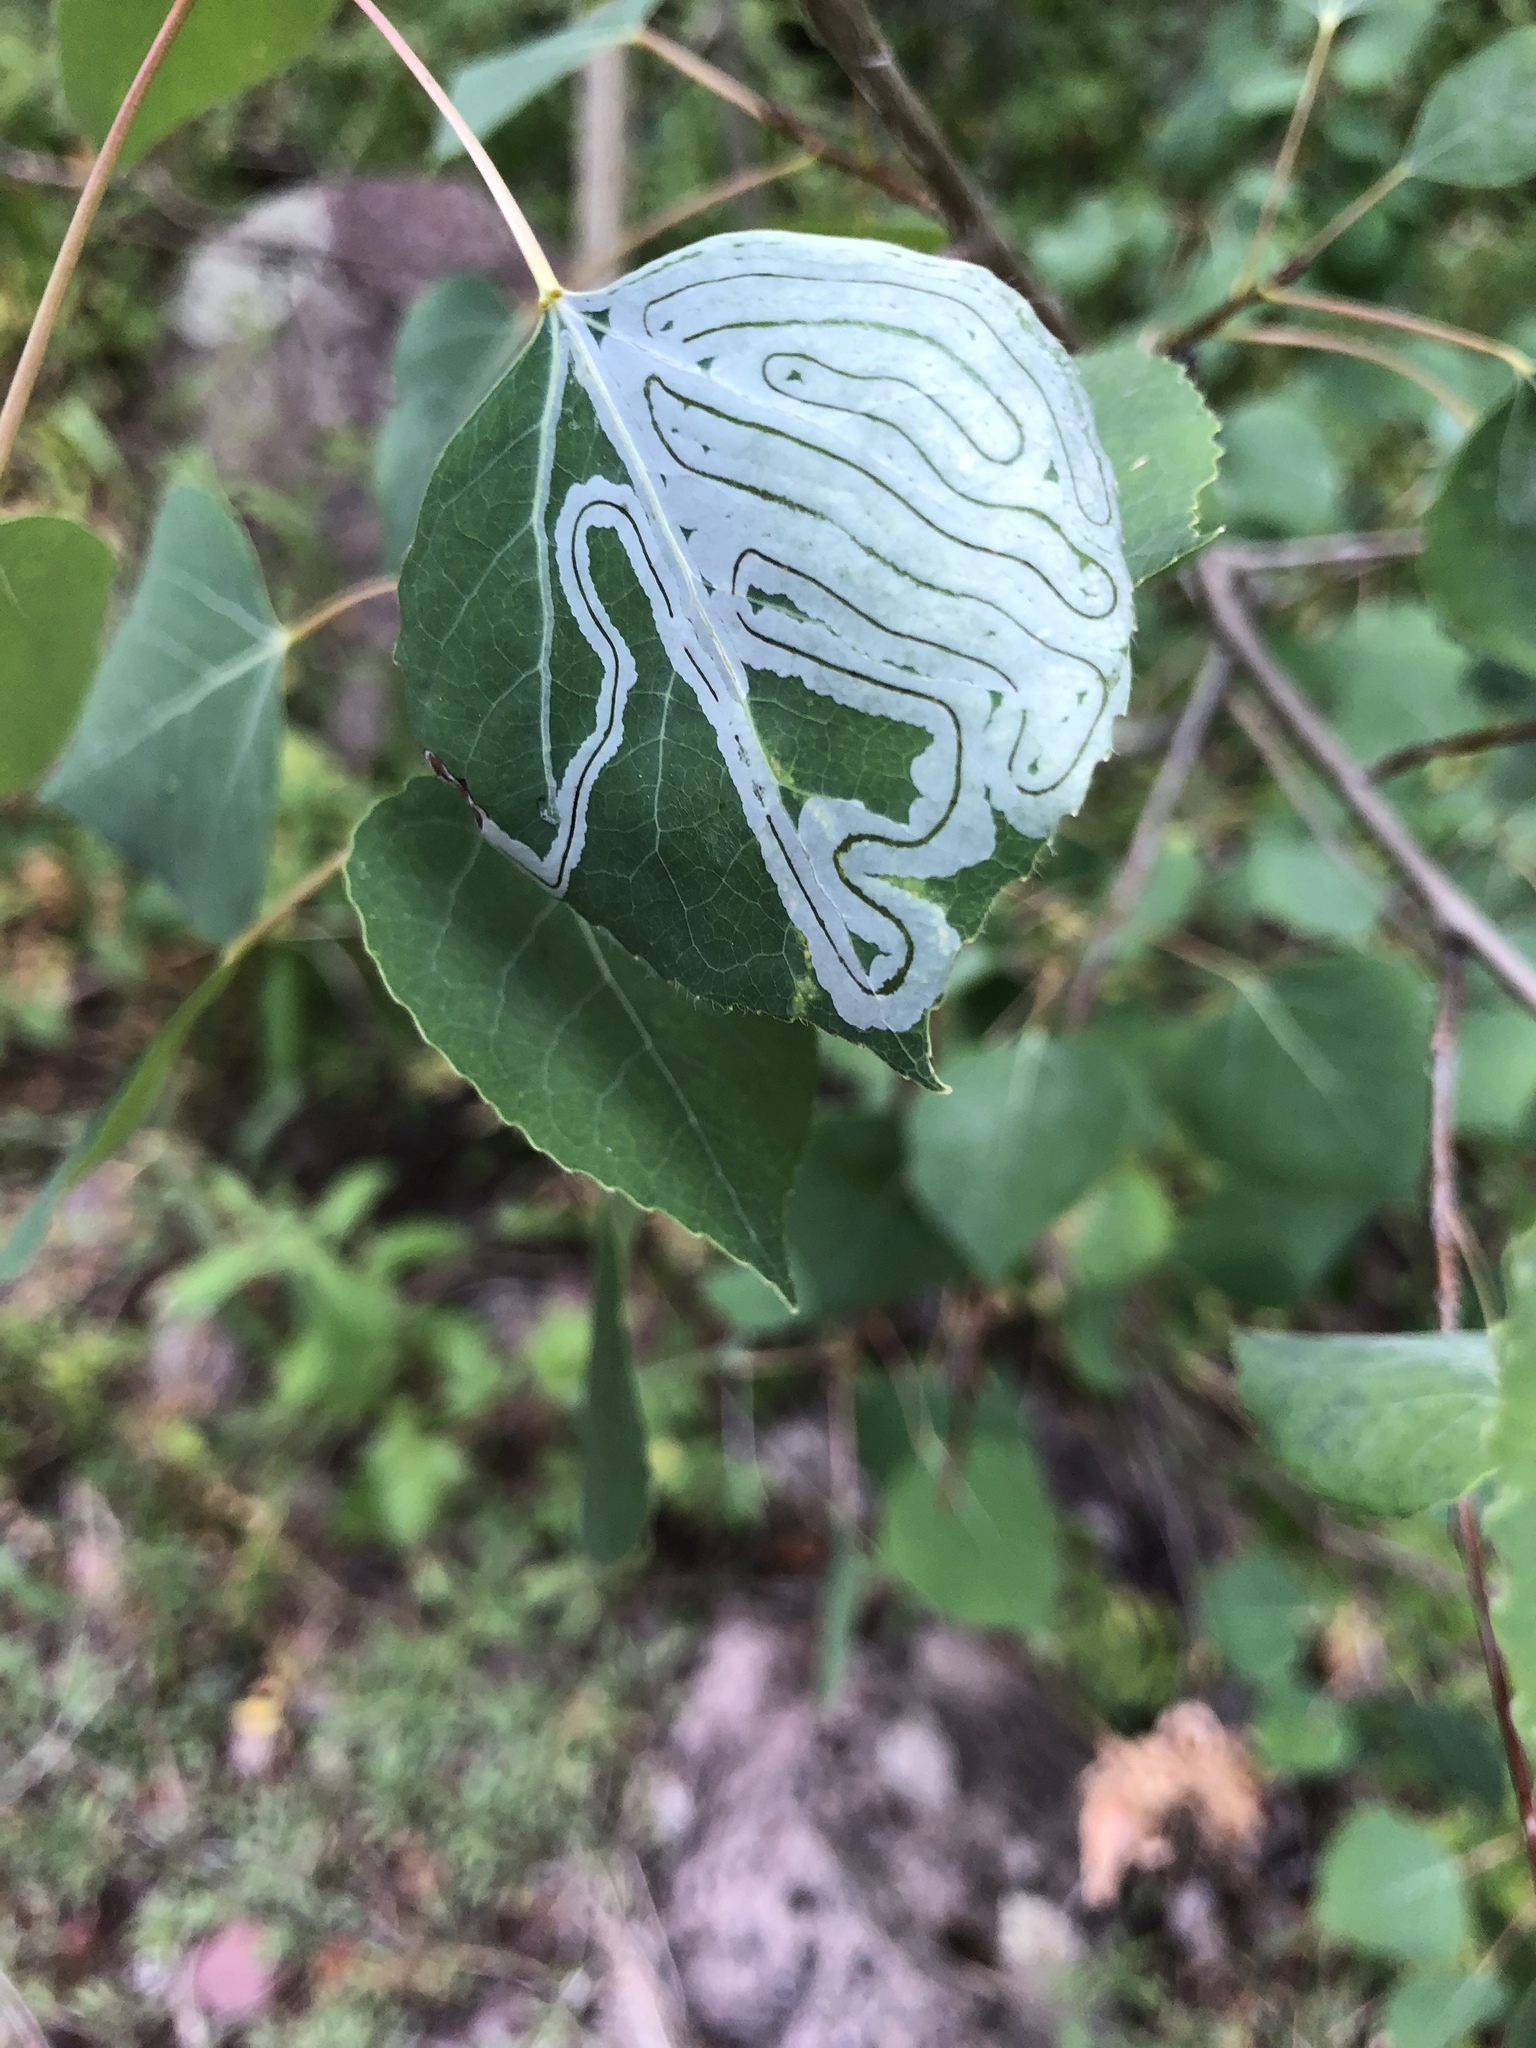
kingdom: Animalia
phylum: Arthropoda
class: Insecta
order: Lepidoptera
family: Gracillariidae
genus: Phyllocnistis
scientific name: Phyllocnistis populiella
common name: Aspen serpentine leafminer moth
